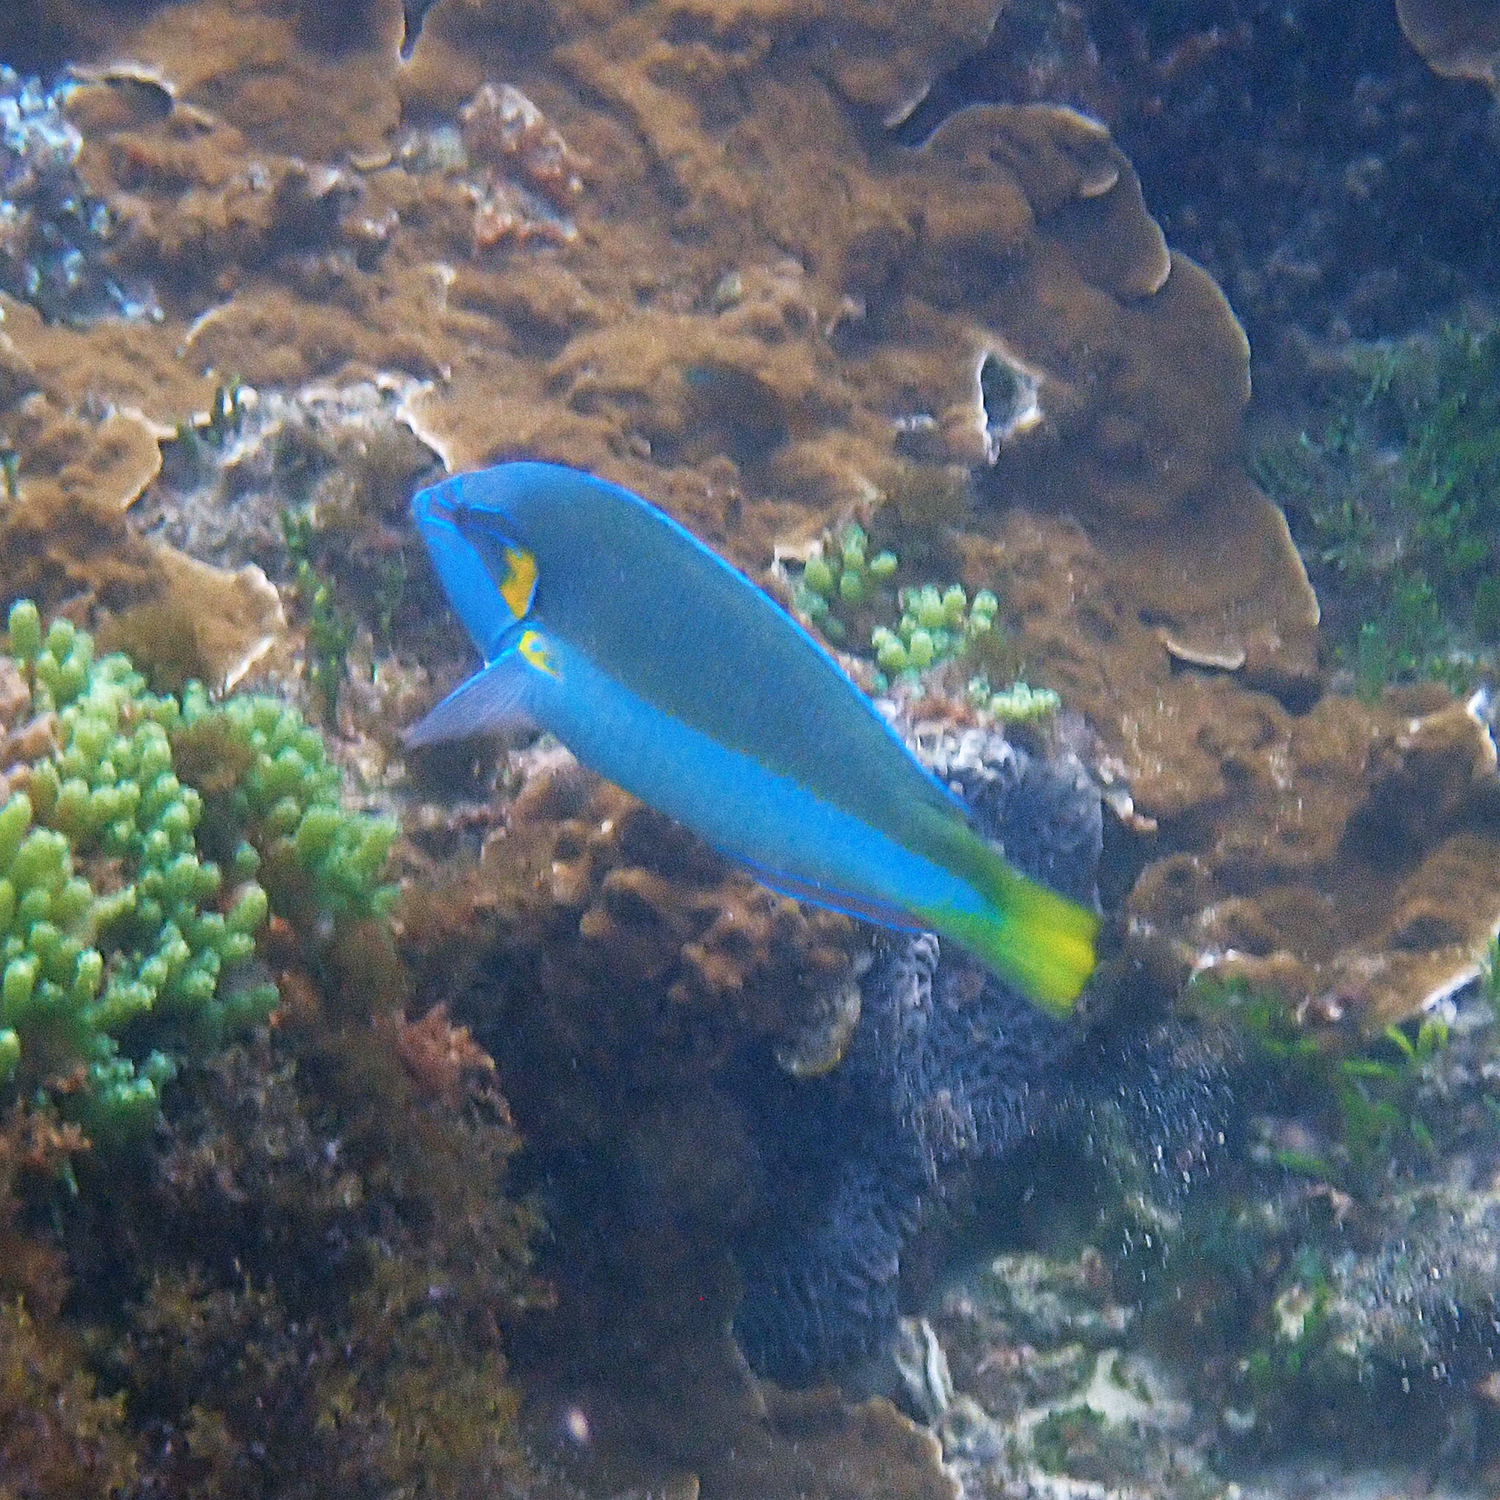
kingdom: Animalia
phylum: Chordata
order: Perciformes
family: Labridae
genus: Anampses
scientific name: Anampses elegans
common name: Elegant wrasse
